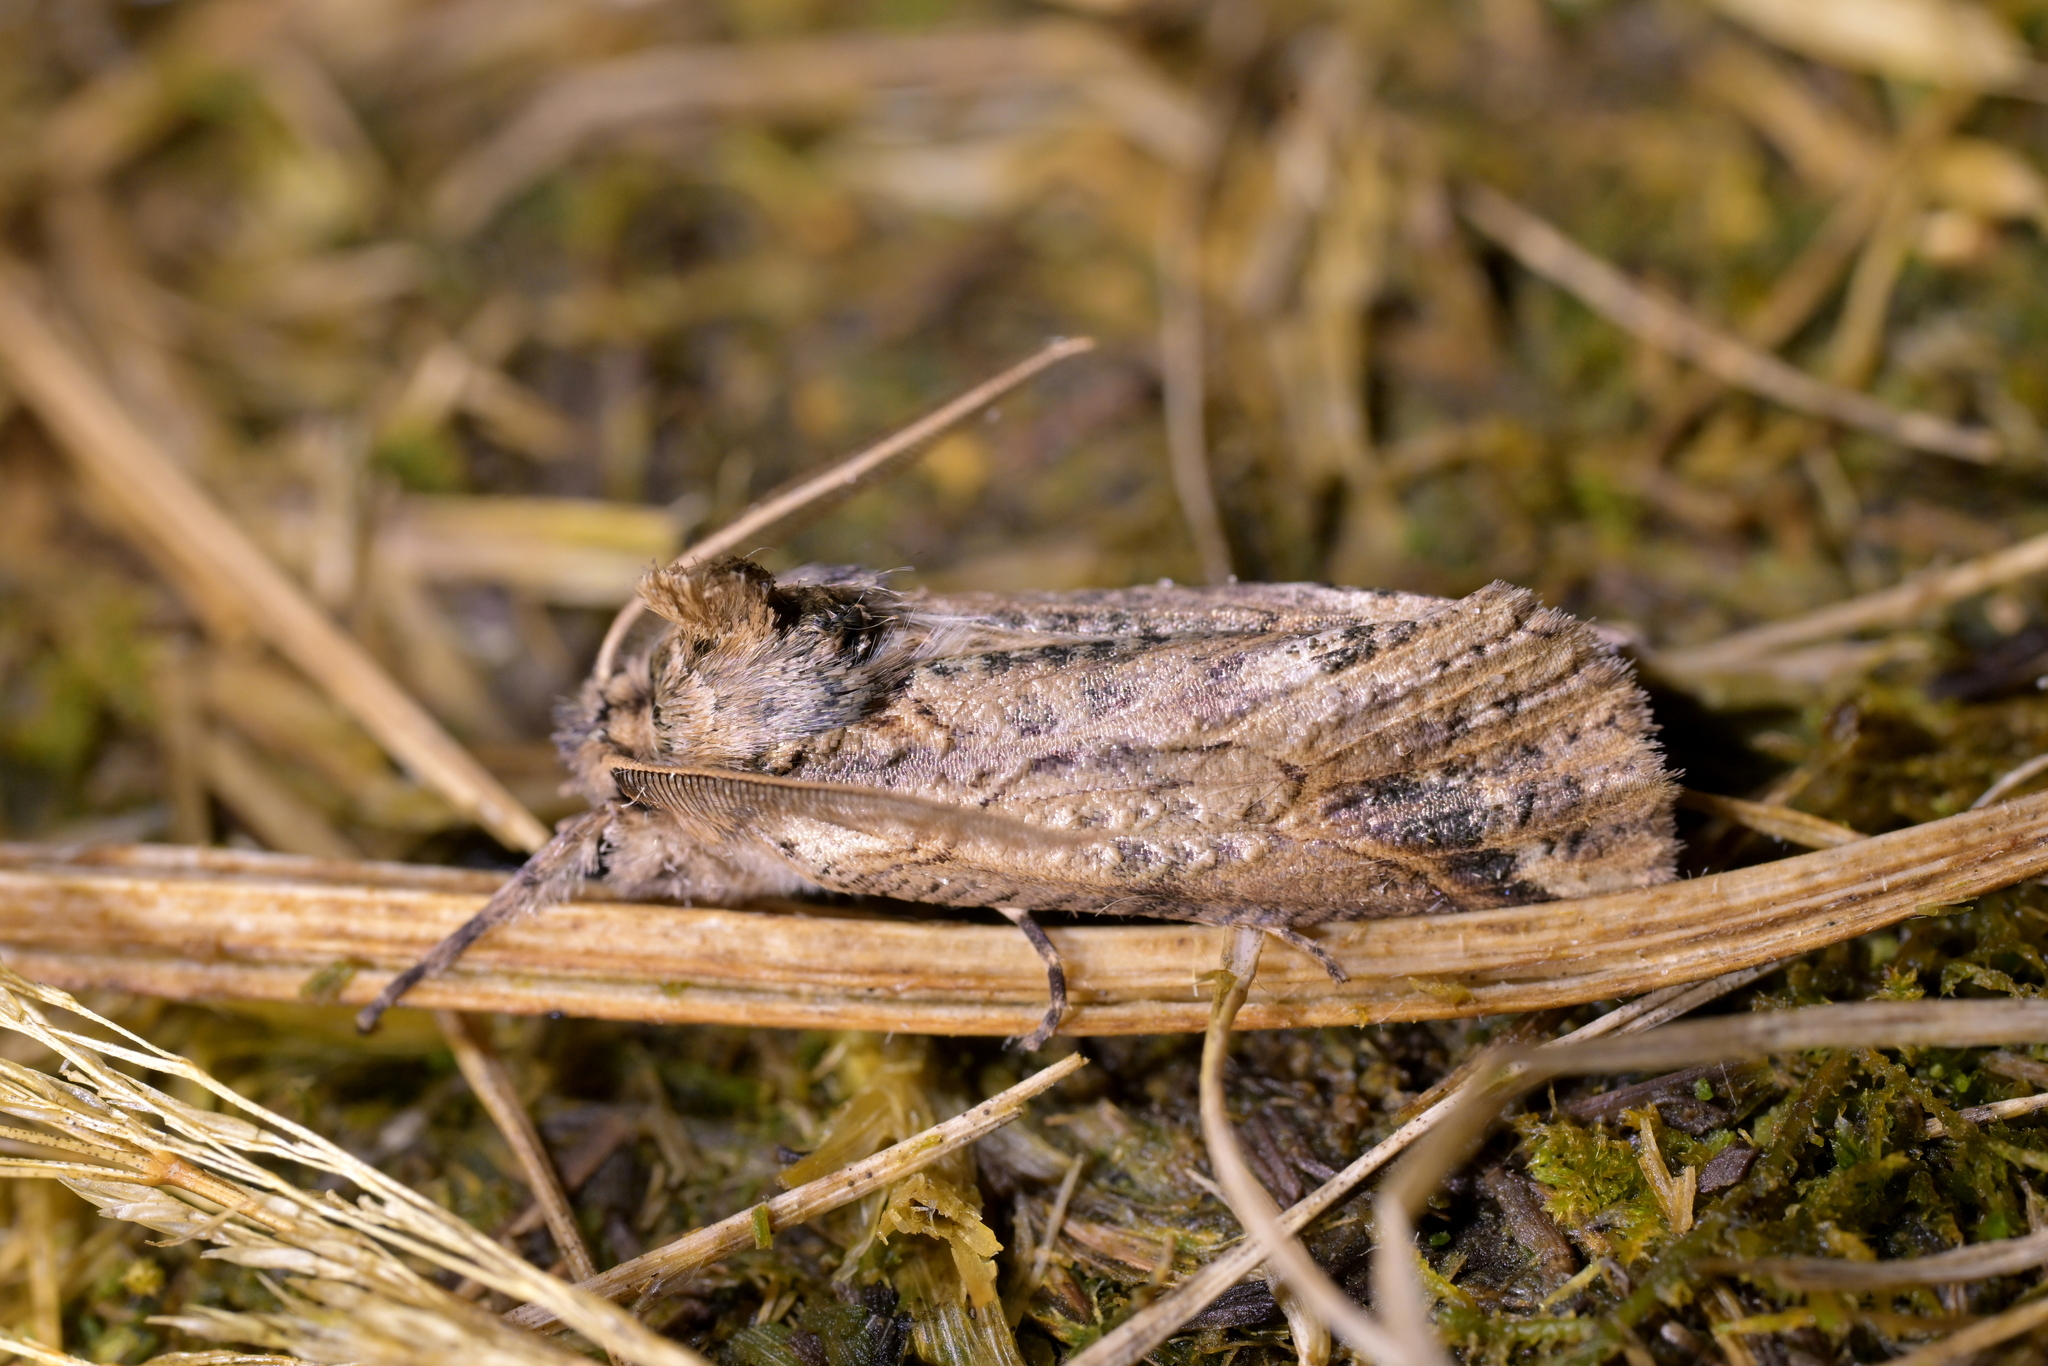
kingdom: Animalia
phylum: Arthropoda
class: Insecta
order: Lepidoptera
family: Geometridae
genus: Declana
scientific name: Declana
